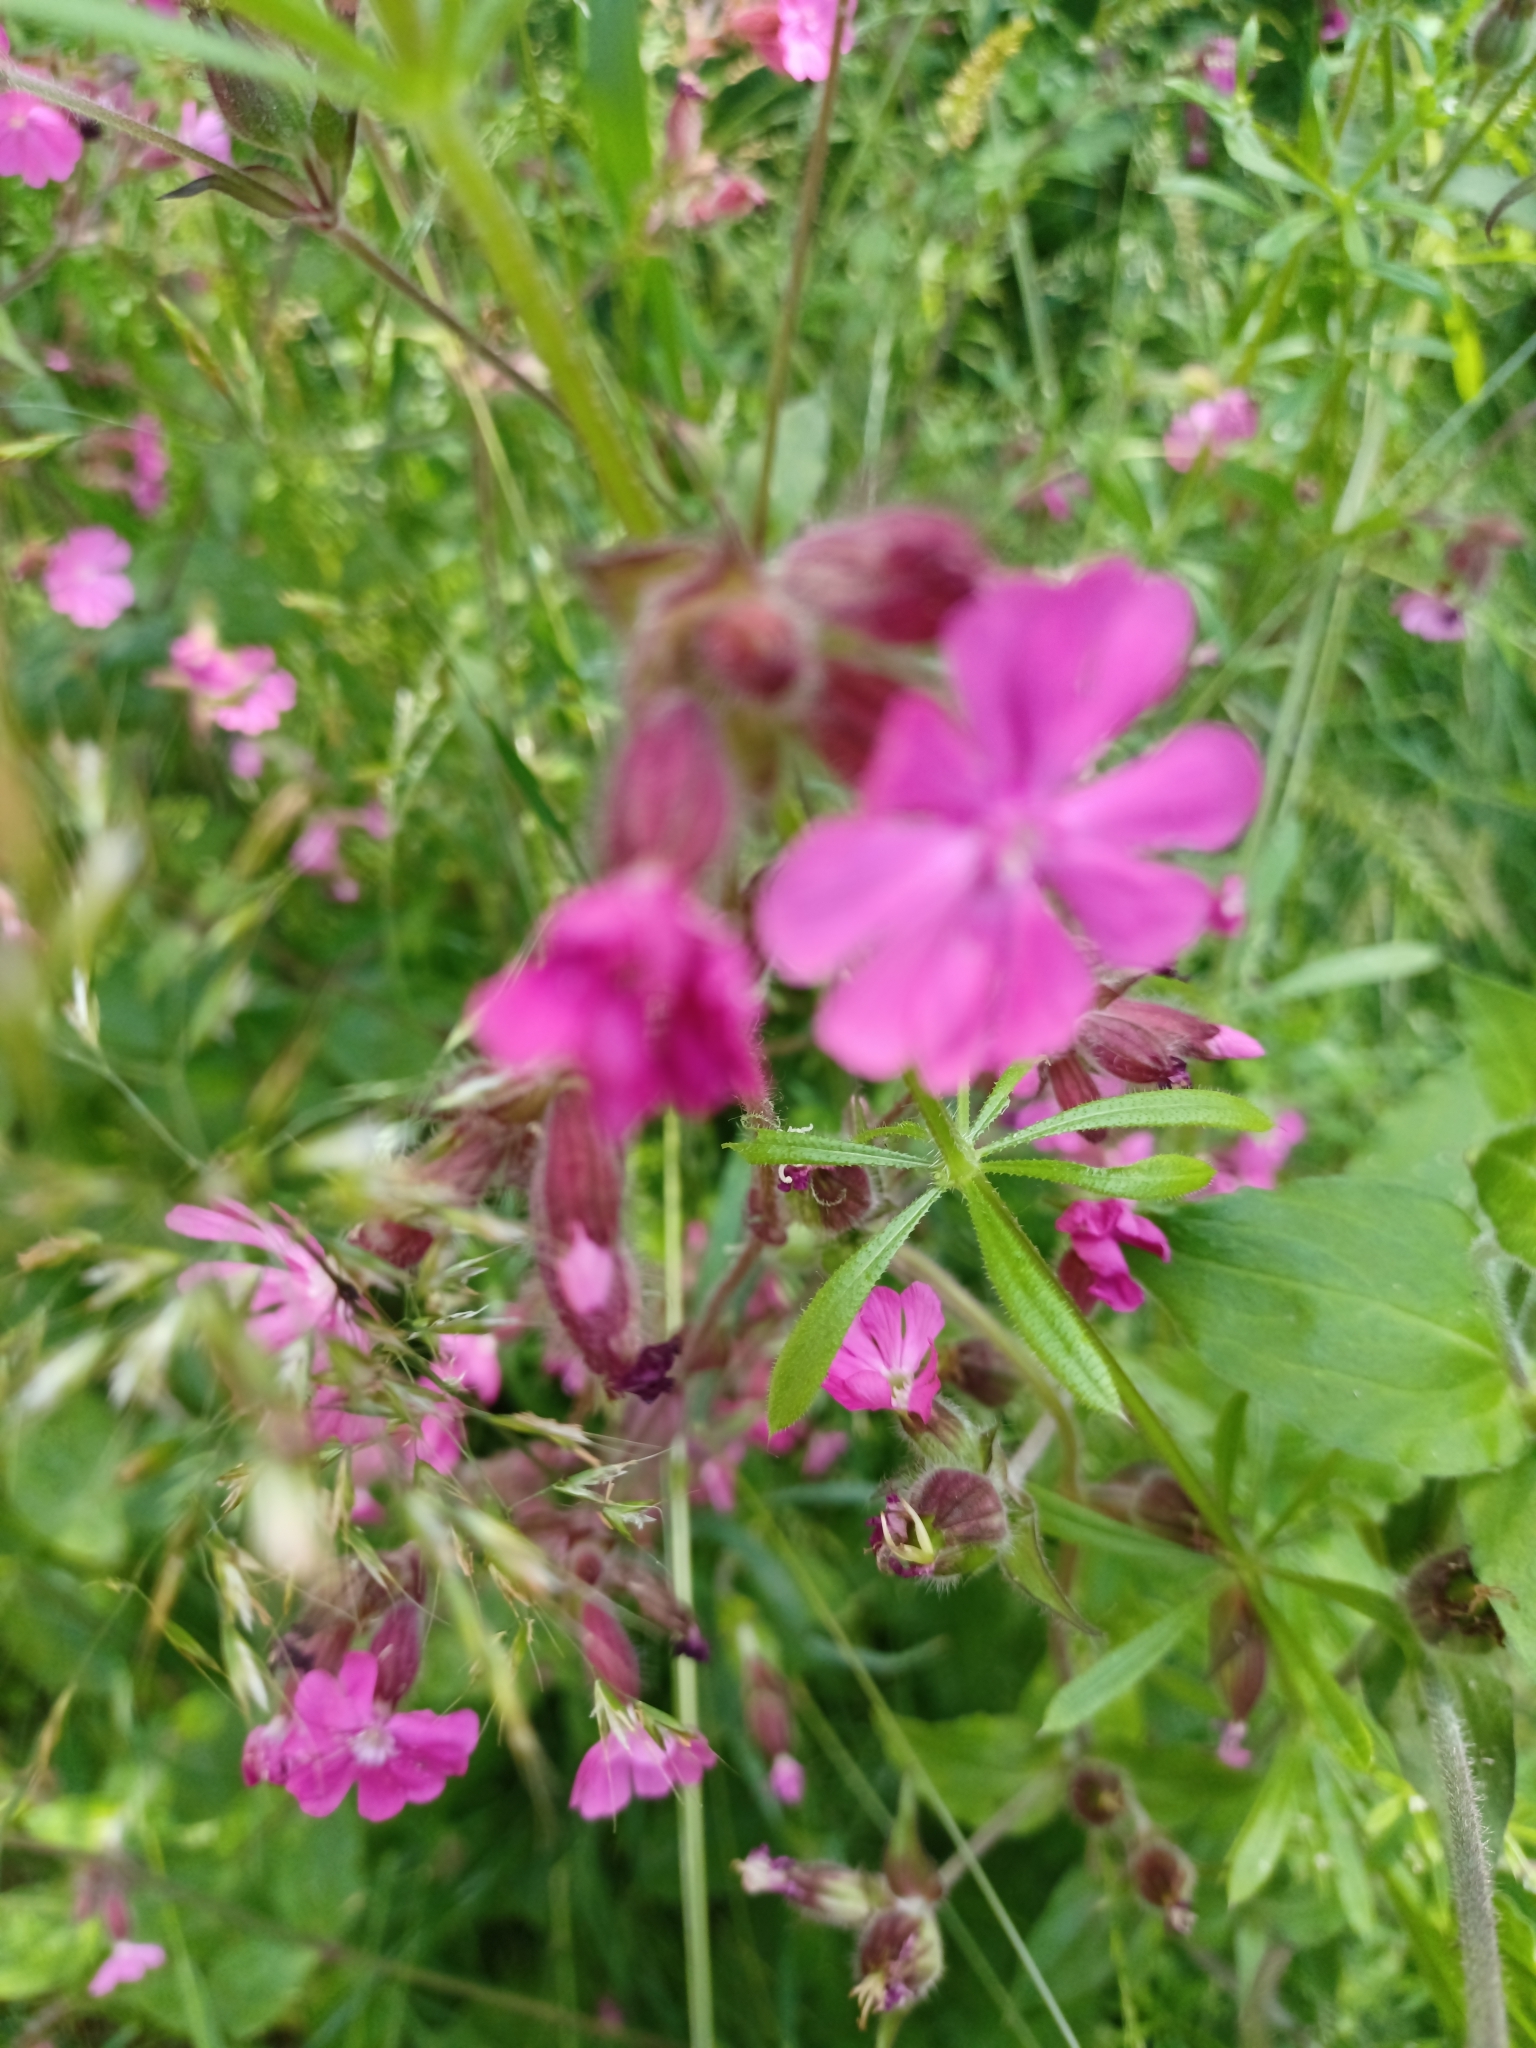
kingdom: Plantae
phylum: Tracheophyta
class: Magnoliopsida
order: Caryophyllales
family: Caryophyllaceae
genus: Silene
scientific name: Silene dioica
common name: Red campion
